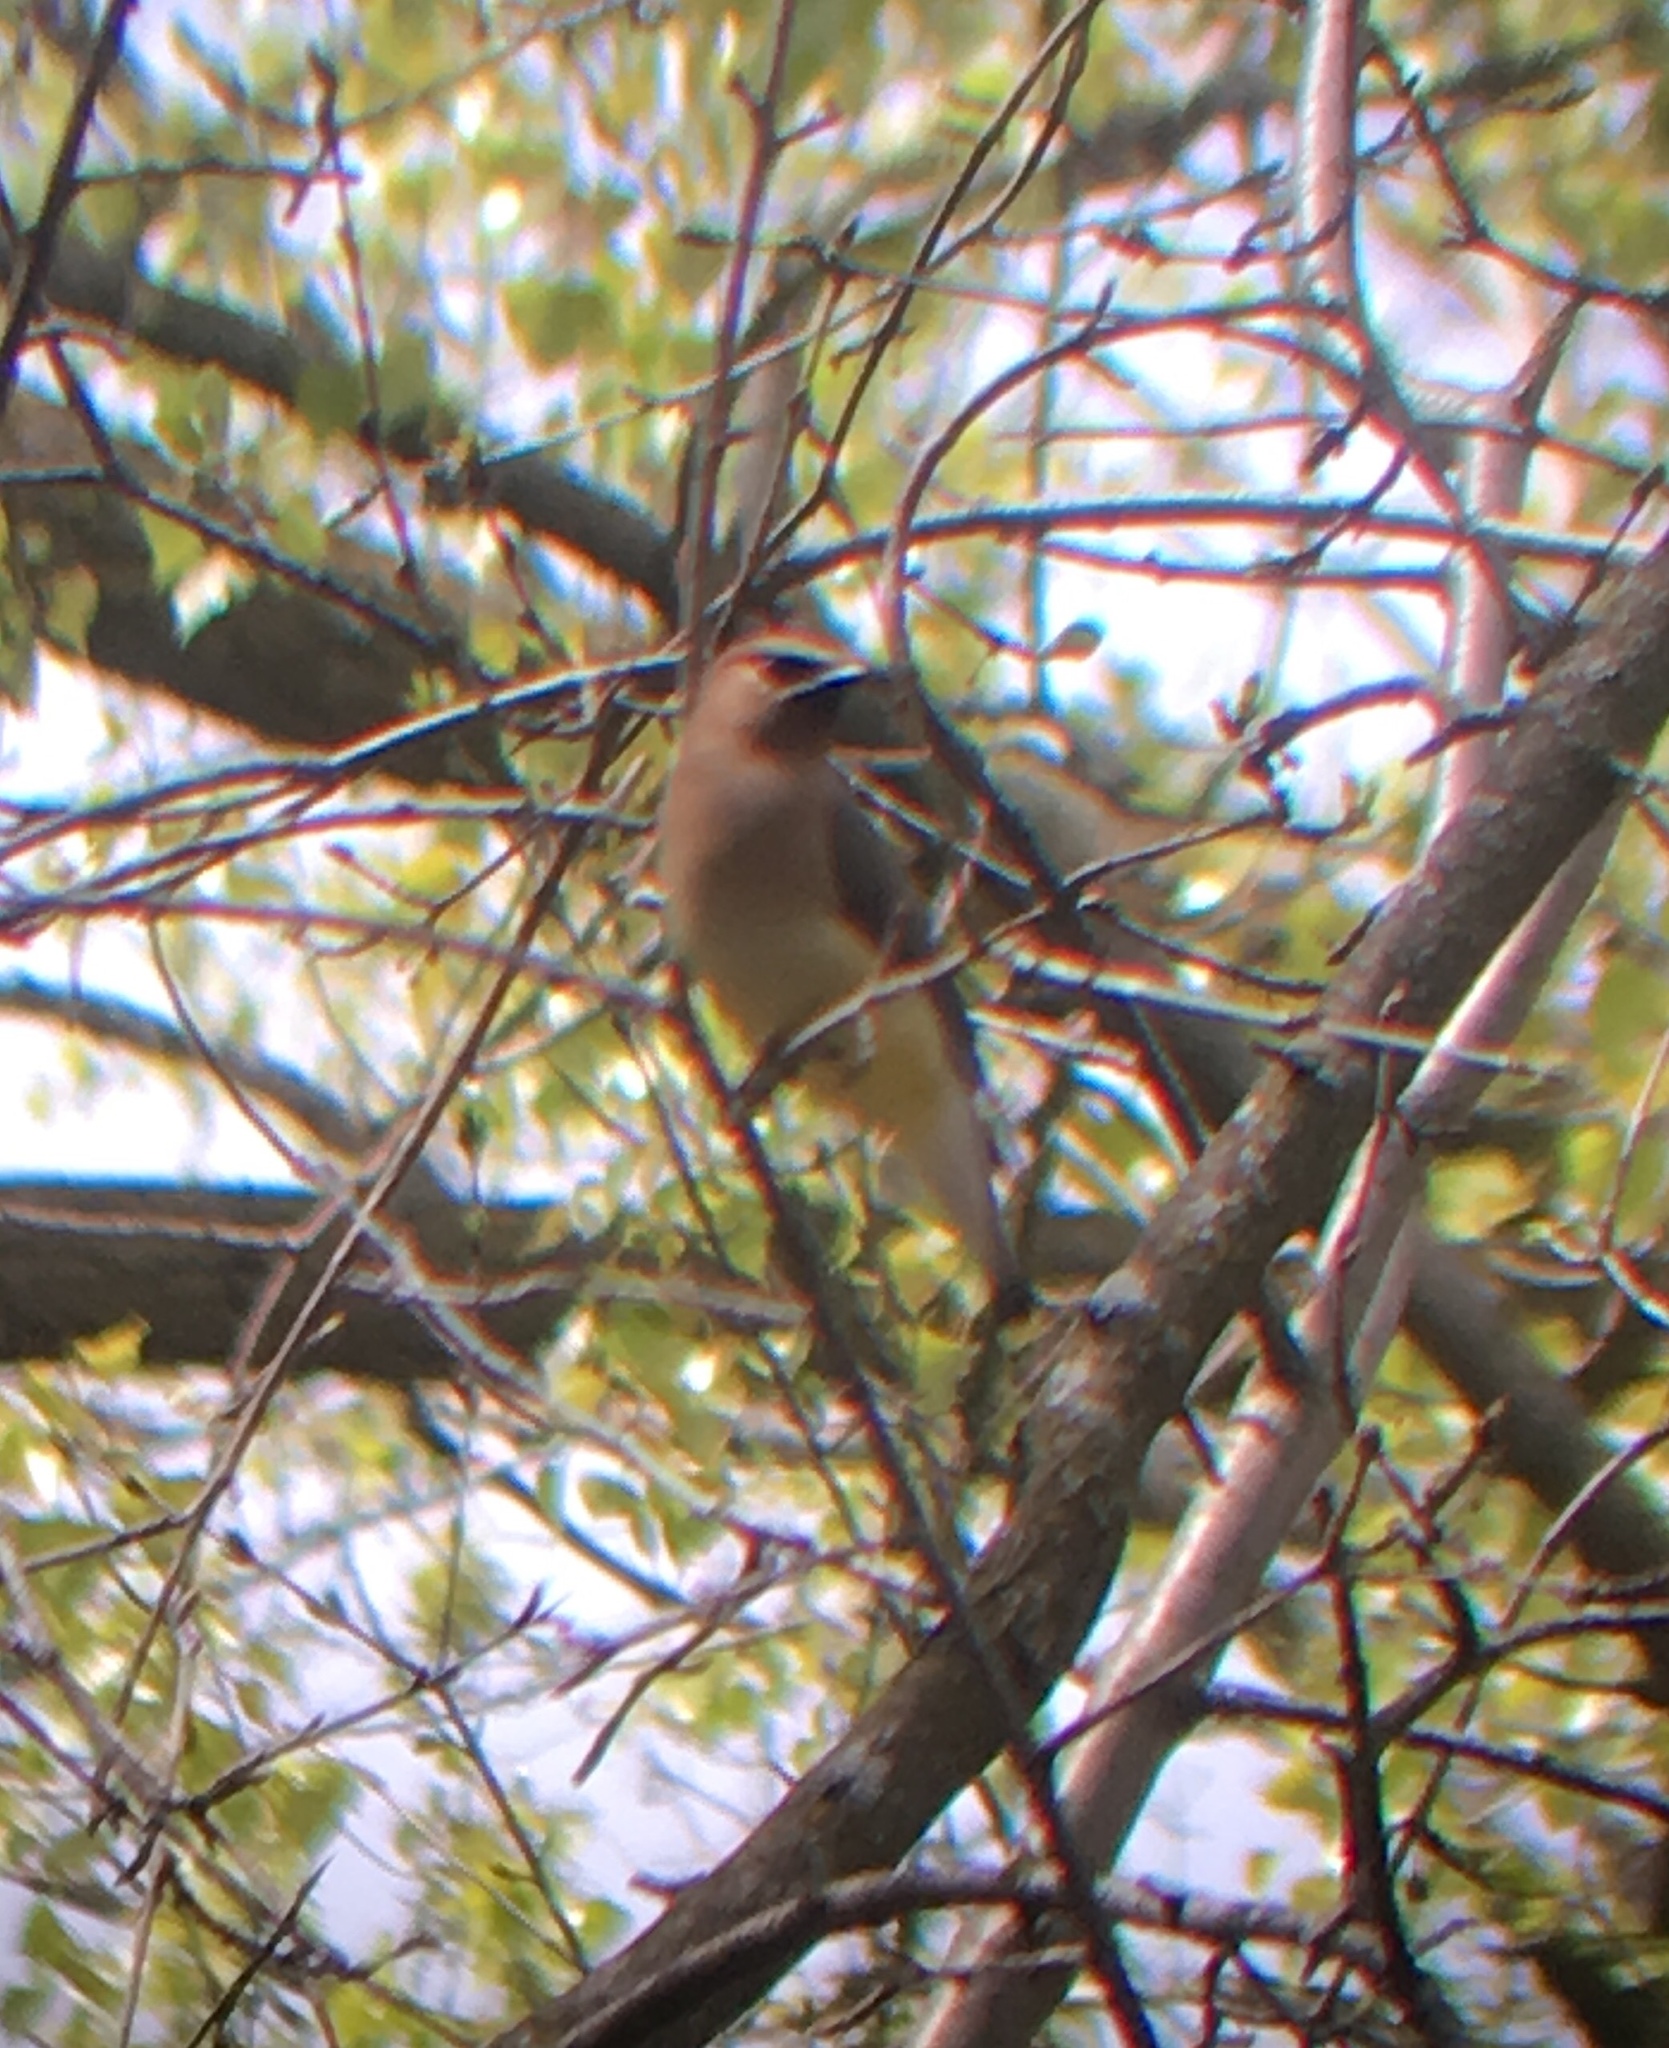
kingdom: Animalia
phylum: Chordata
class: Aves
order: Passeriformes
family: Bombycillidae
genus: Bombycilla
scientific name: Bombycilla cedrorum
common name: Cedar waxwing
